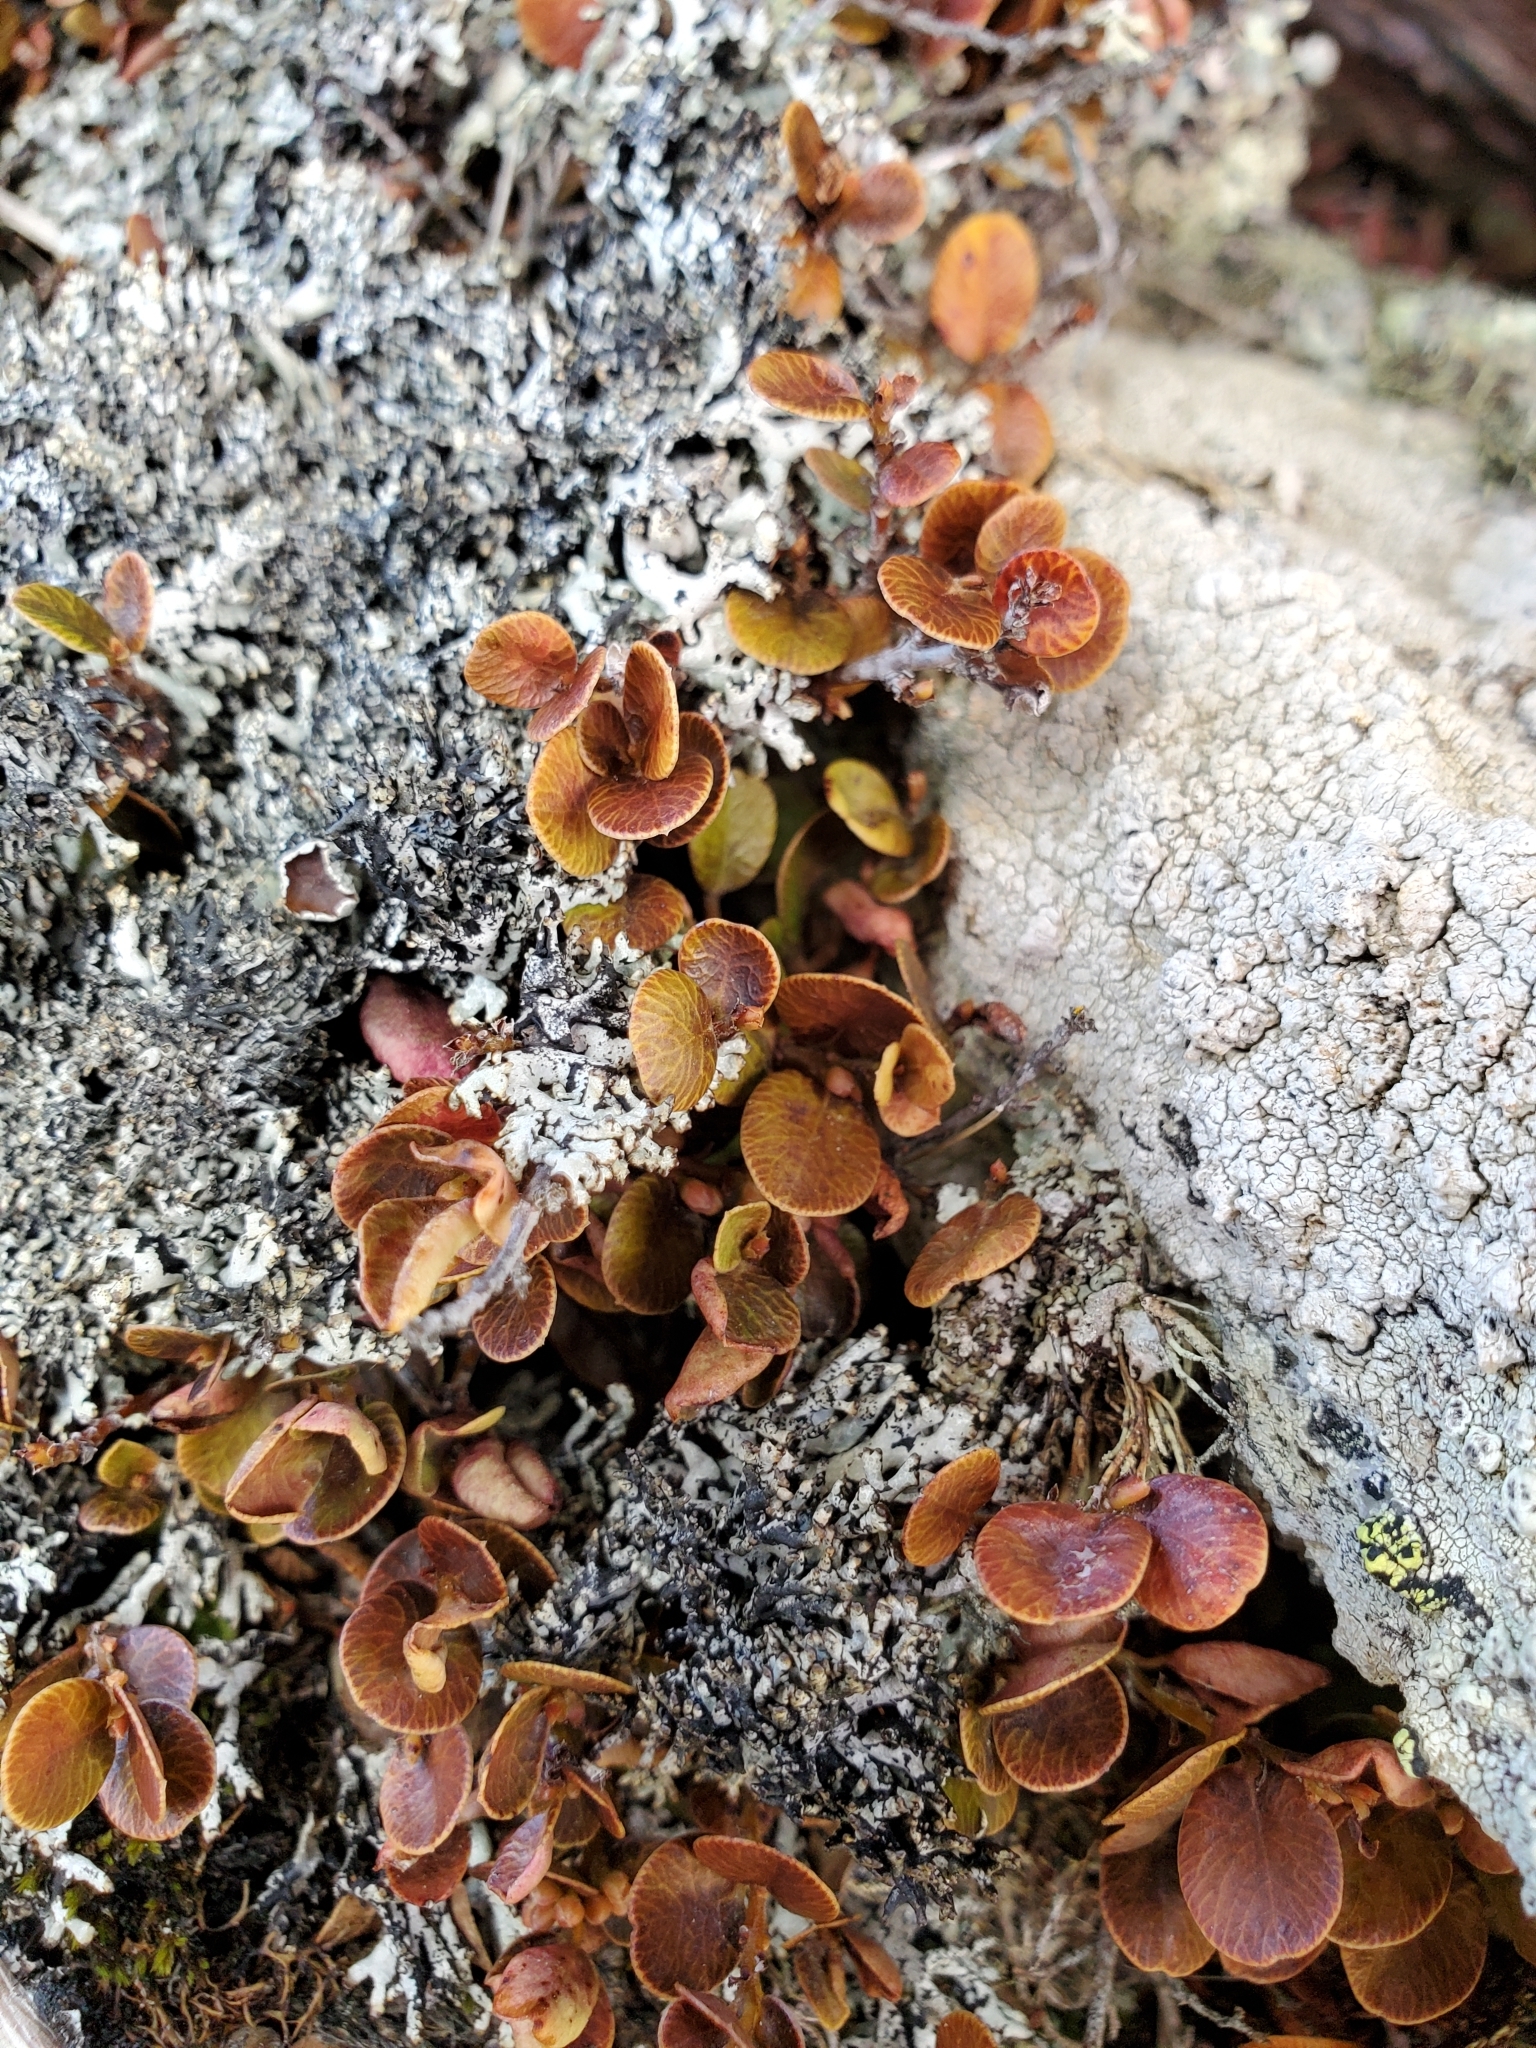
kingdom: Plantae
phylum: Tracheophyta
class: Magnoliopsida
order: Ericales
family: Primulaceae
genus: Myrsine
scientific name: Myrsine nummularia
